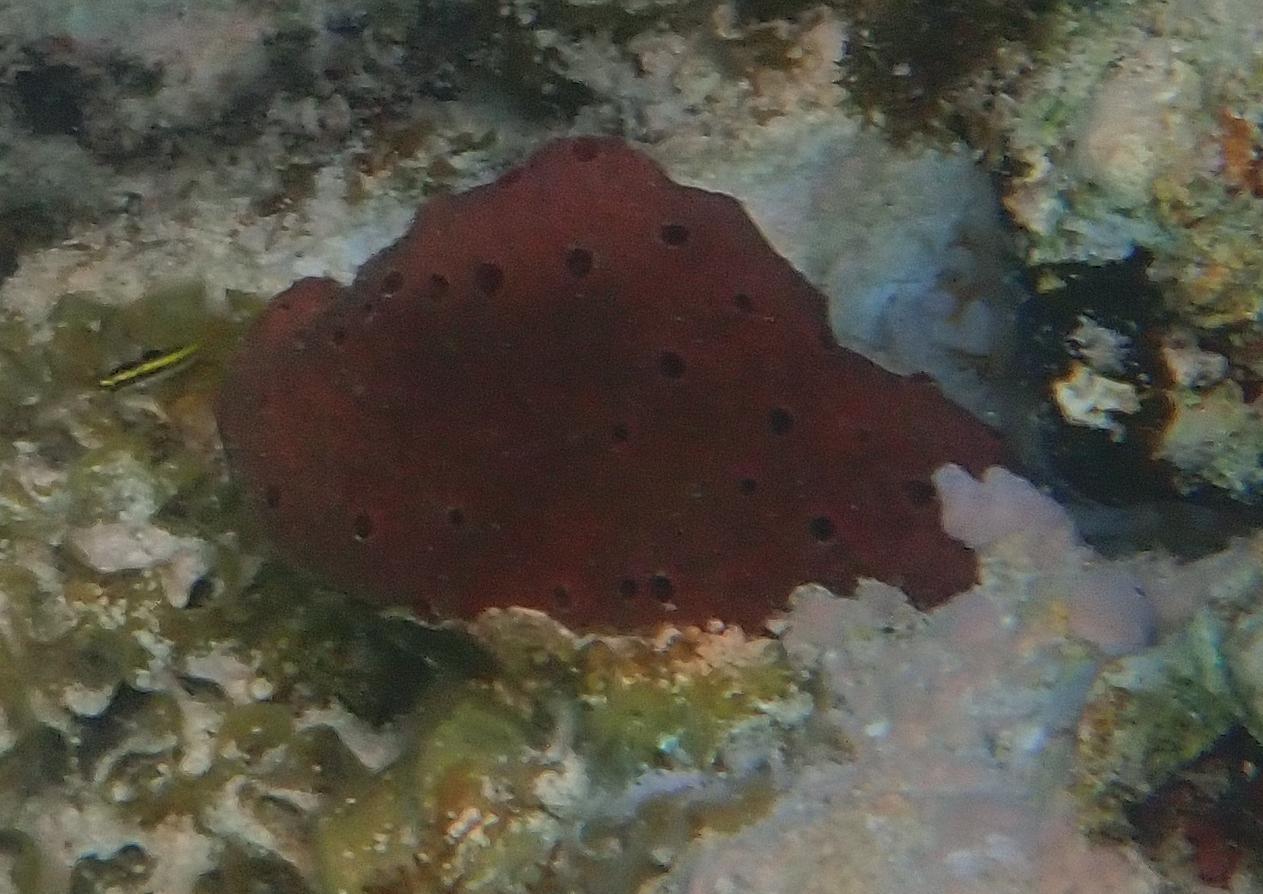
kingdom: Animalia
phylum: Porifera
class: Demospongiae
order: Haplosclerida
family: Niphatidae
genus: Amphimedon
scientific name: Amphimedon compressa
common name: Red sponge
